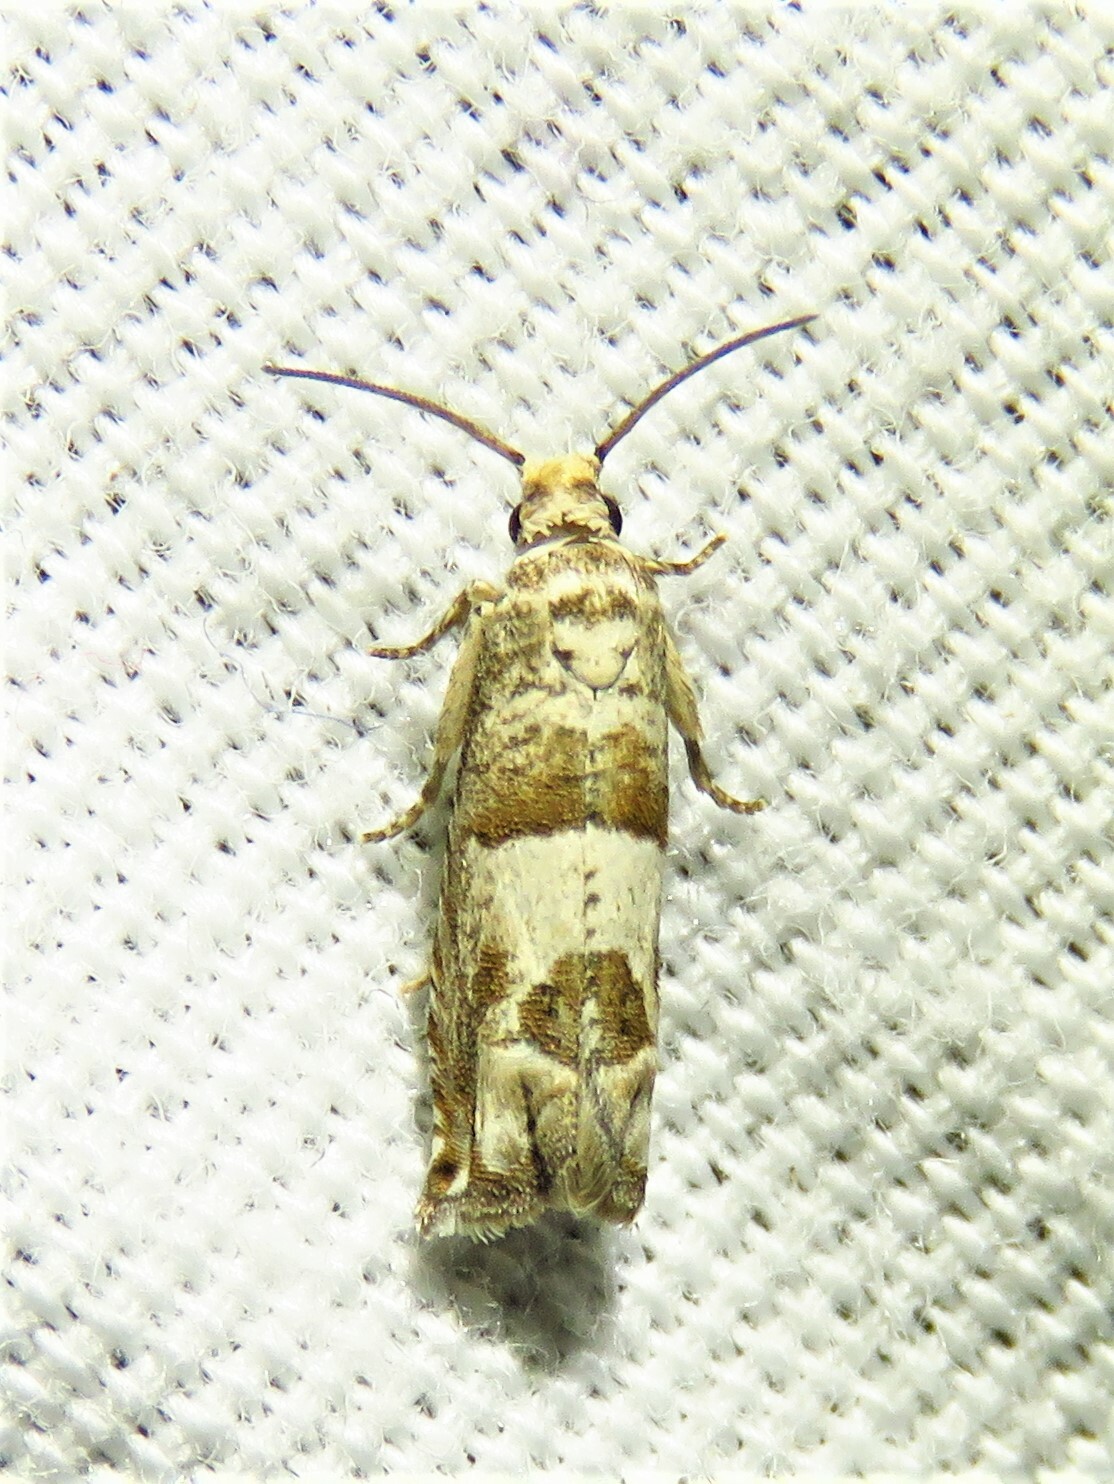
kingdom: Animalia
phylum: Arthropoda
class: Insecta
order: Lepidoptera
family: Tortricidae
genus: Sonia
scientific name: Sonia constrictana
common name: Constricted sonia moth
